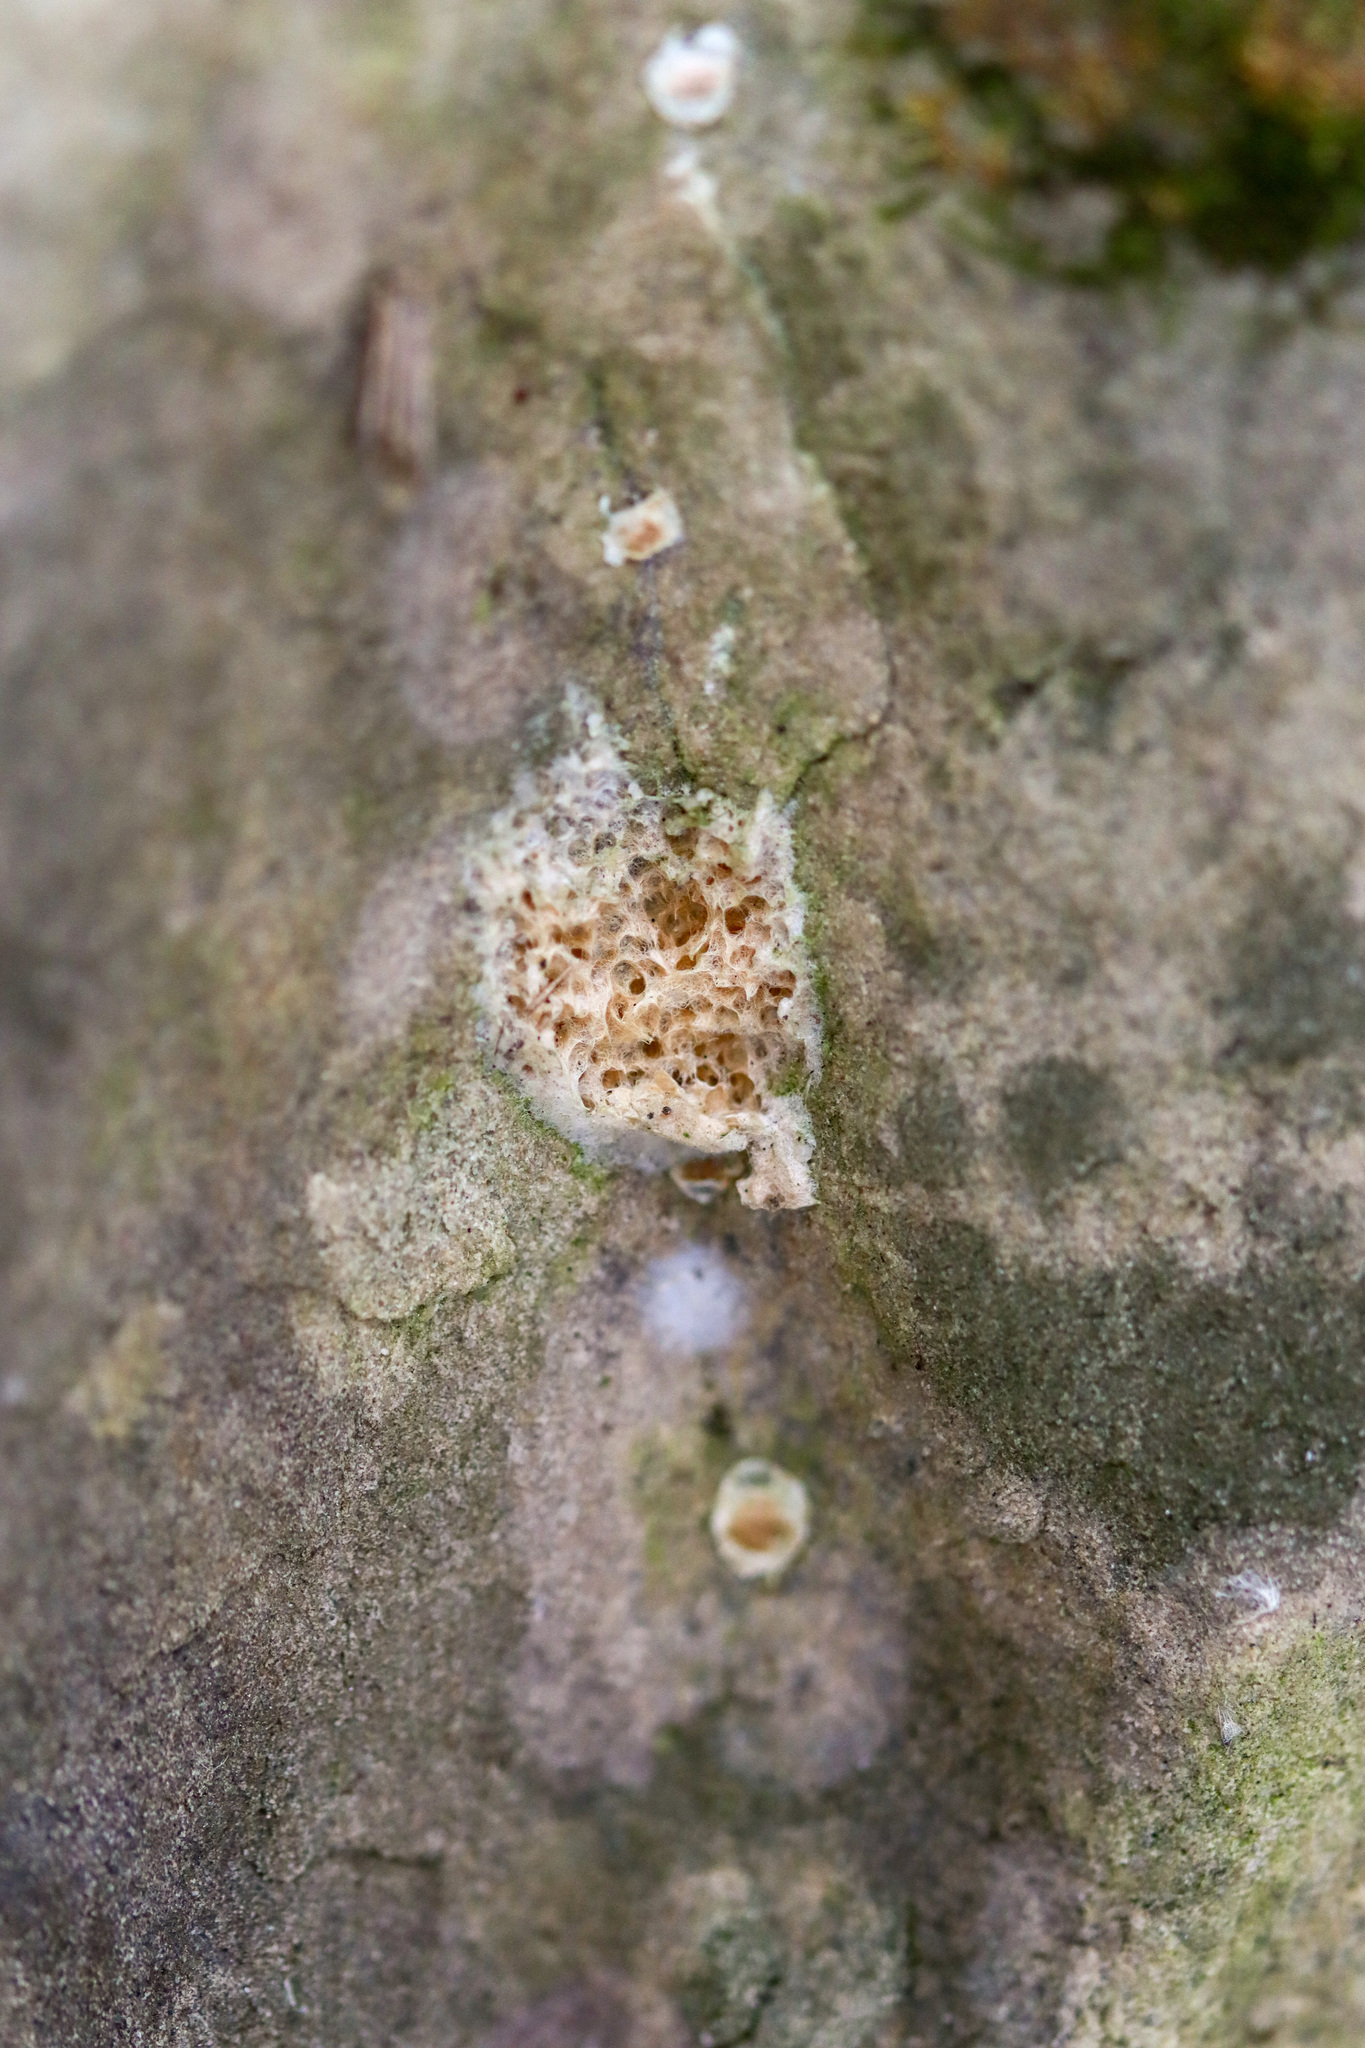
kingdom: Animalia
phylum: Arthropoda
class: Insecta
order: Lepidoptera
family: Erebidae
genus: Lymantria
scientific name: Lymantria dispar
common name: Gypsy moth
